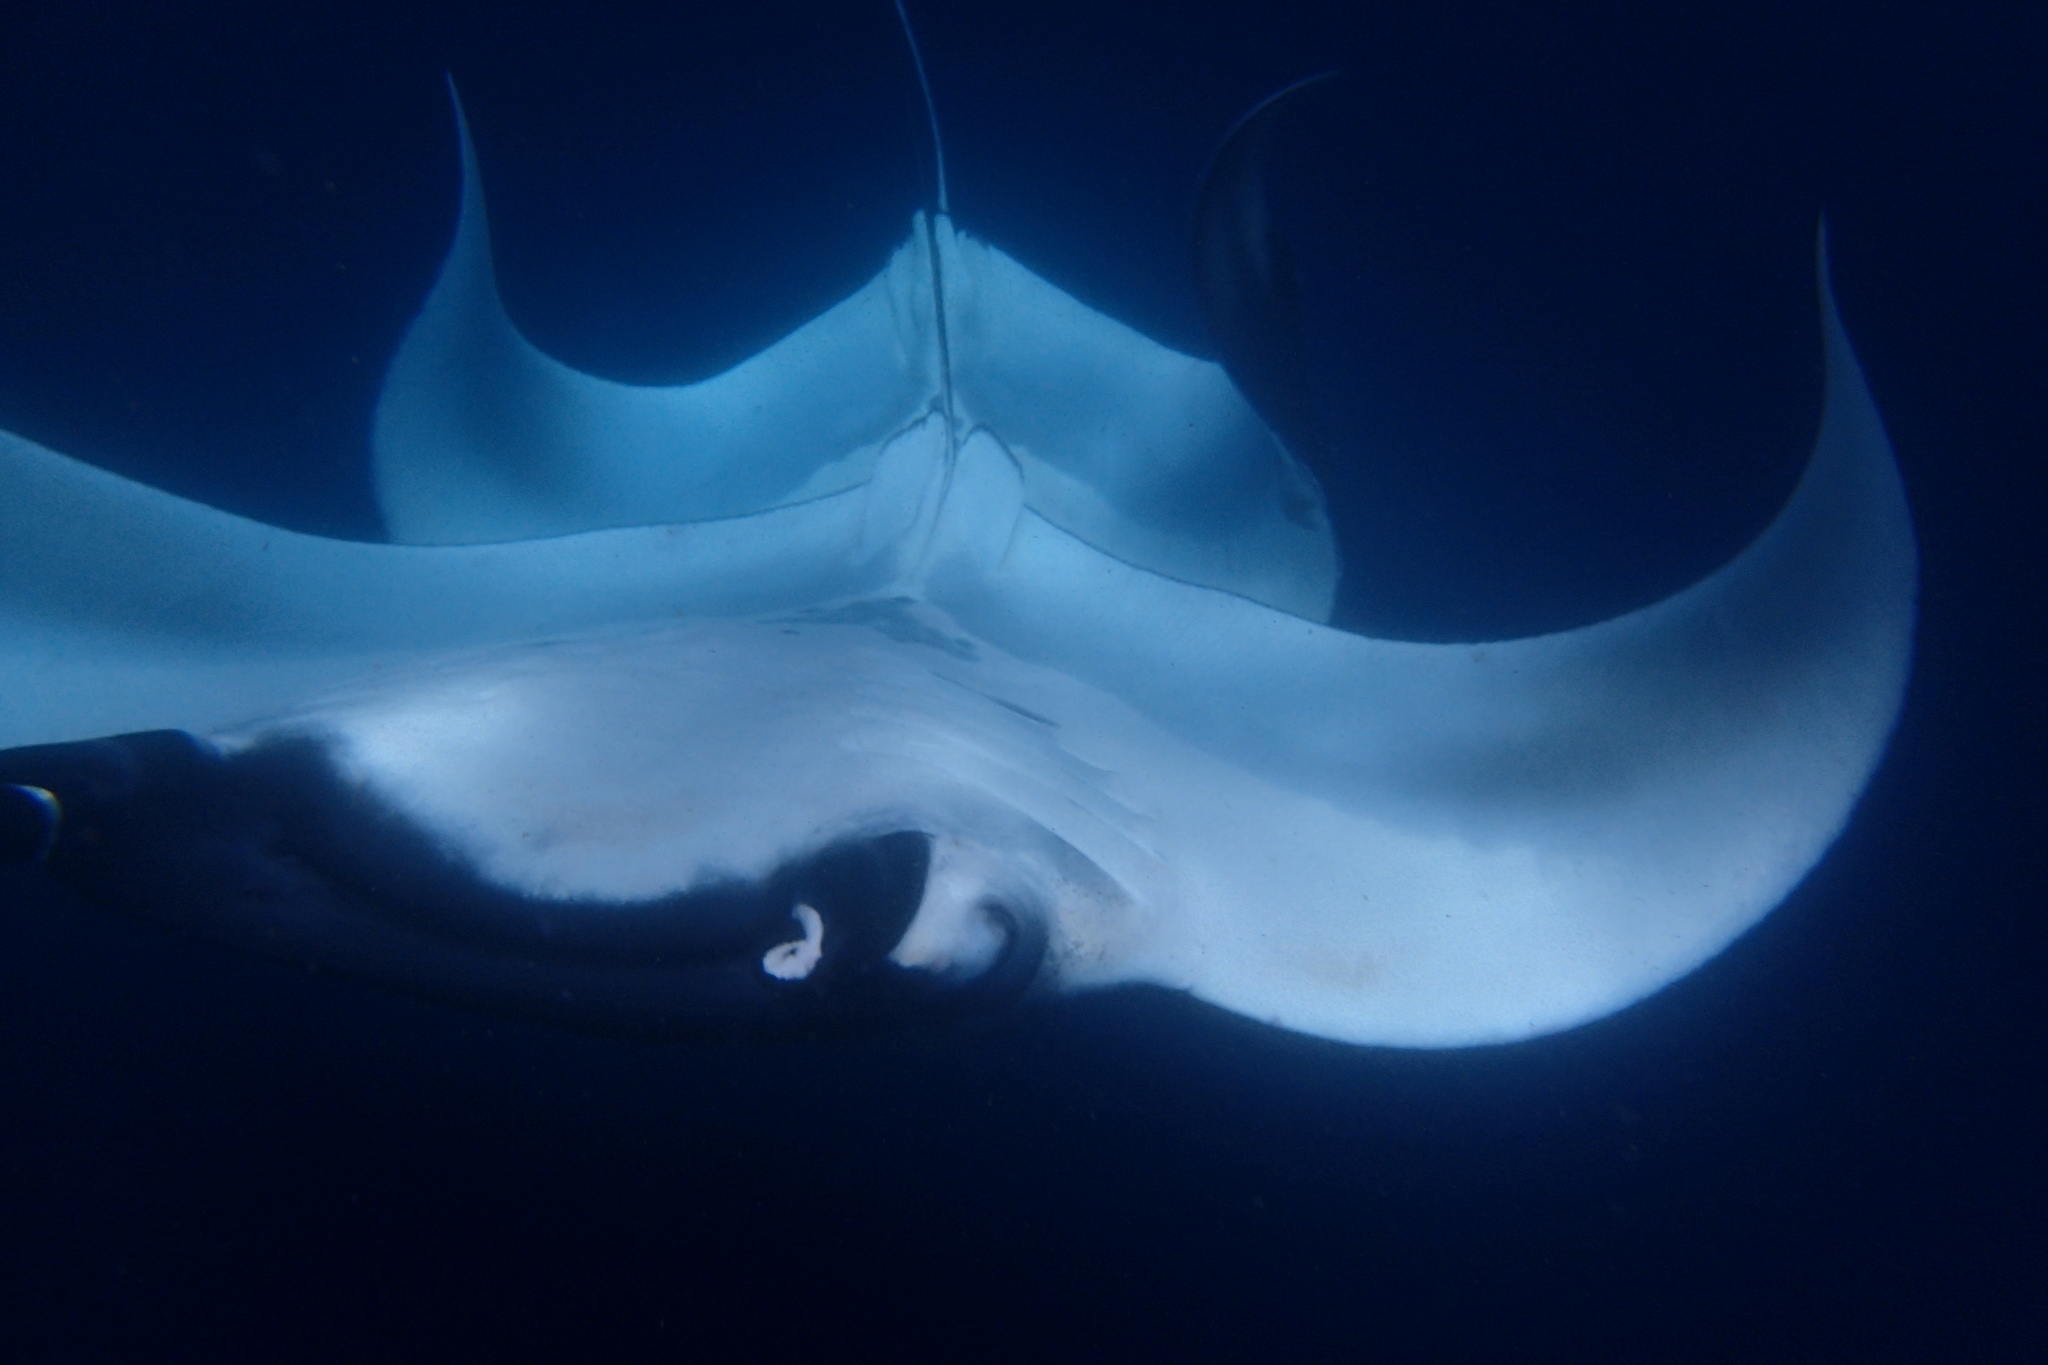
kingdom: Animalia
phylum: Chordata
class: Elasmobranchii
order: Myliobatiformes
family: Myliobatidae
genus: Mobula
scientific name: Mobula birostris
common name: Manta ray
